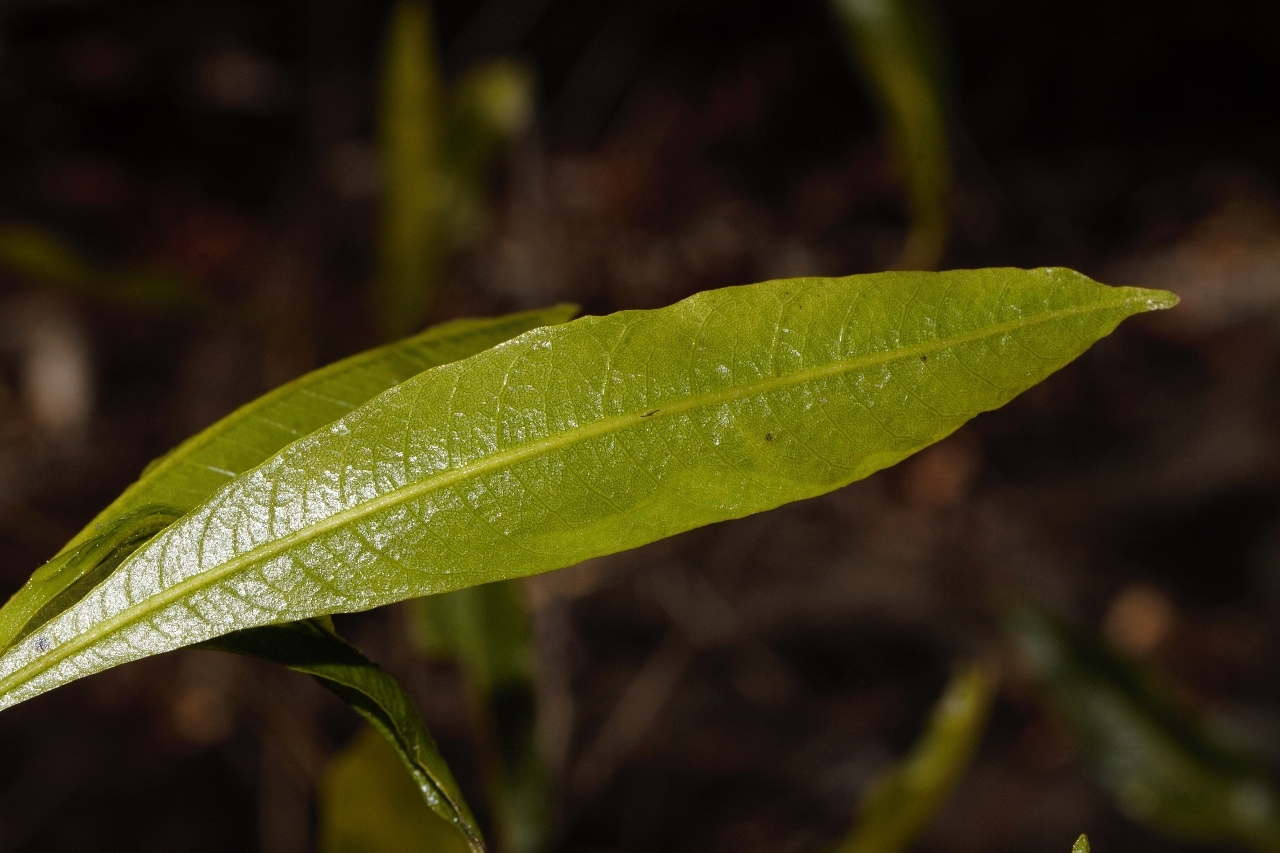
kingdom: Plantae
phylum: Tracheophyta
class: Magnoliopsida
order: Sapindales
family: Sapindaceae
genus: Dodonaea
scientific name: Dodonaea viscosa
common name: Hopbush
